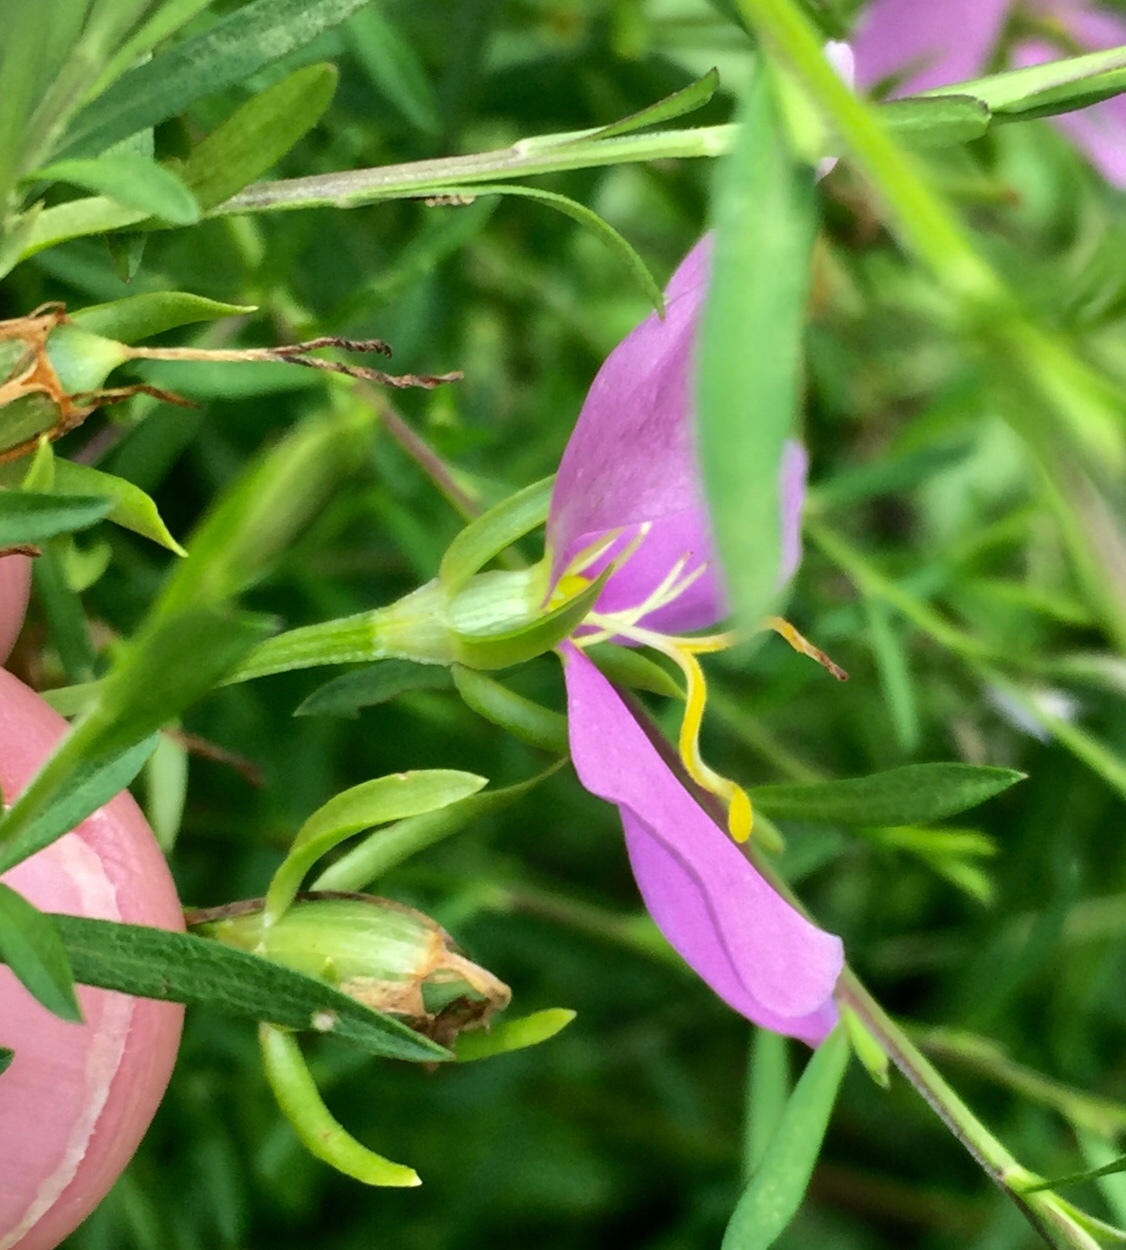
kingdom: Plantae
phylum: Tracheophyta
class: Magnoliopsida
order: Gentianales
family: Gentianaceae
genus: Sabatia
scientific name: Sabatia angularis
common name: Rose-pink
